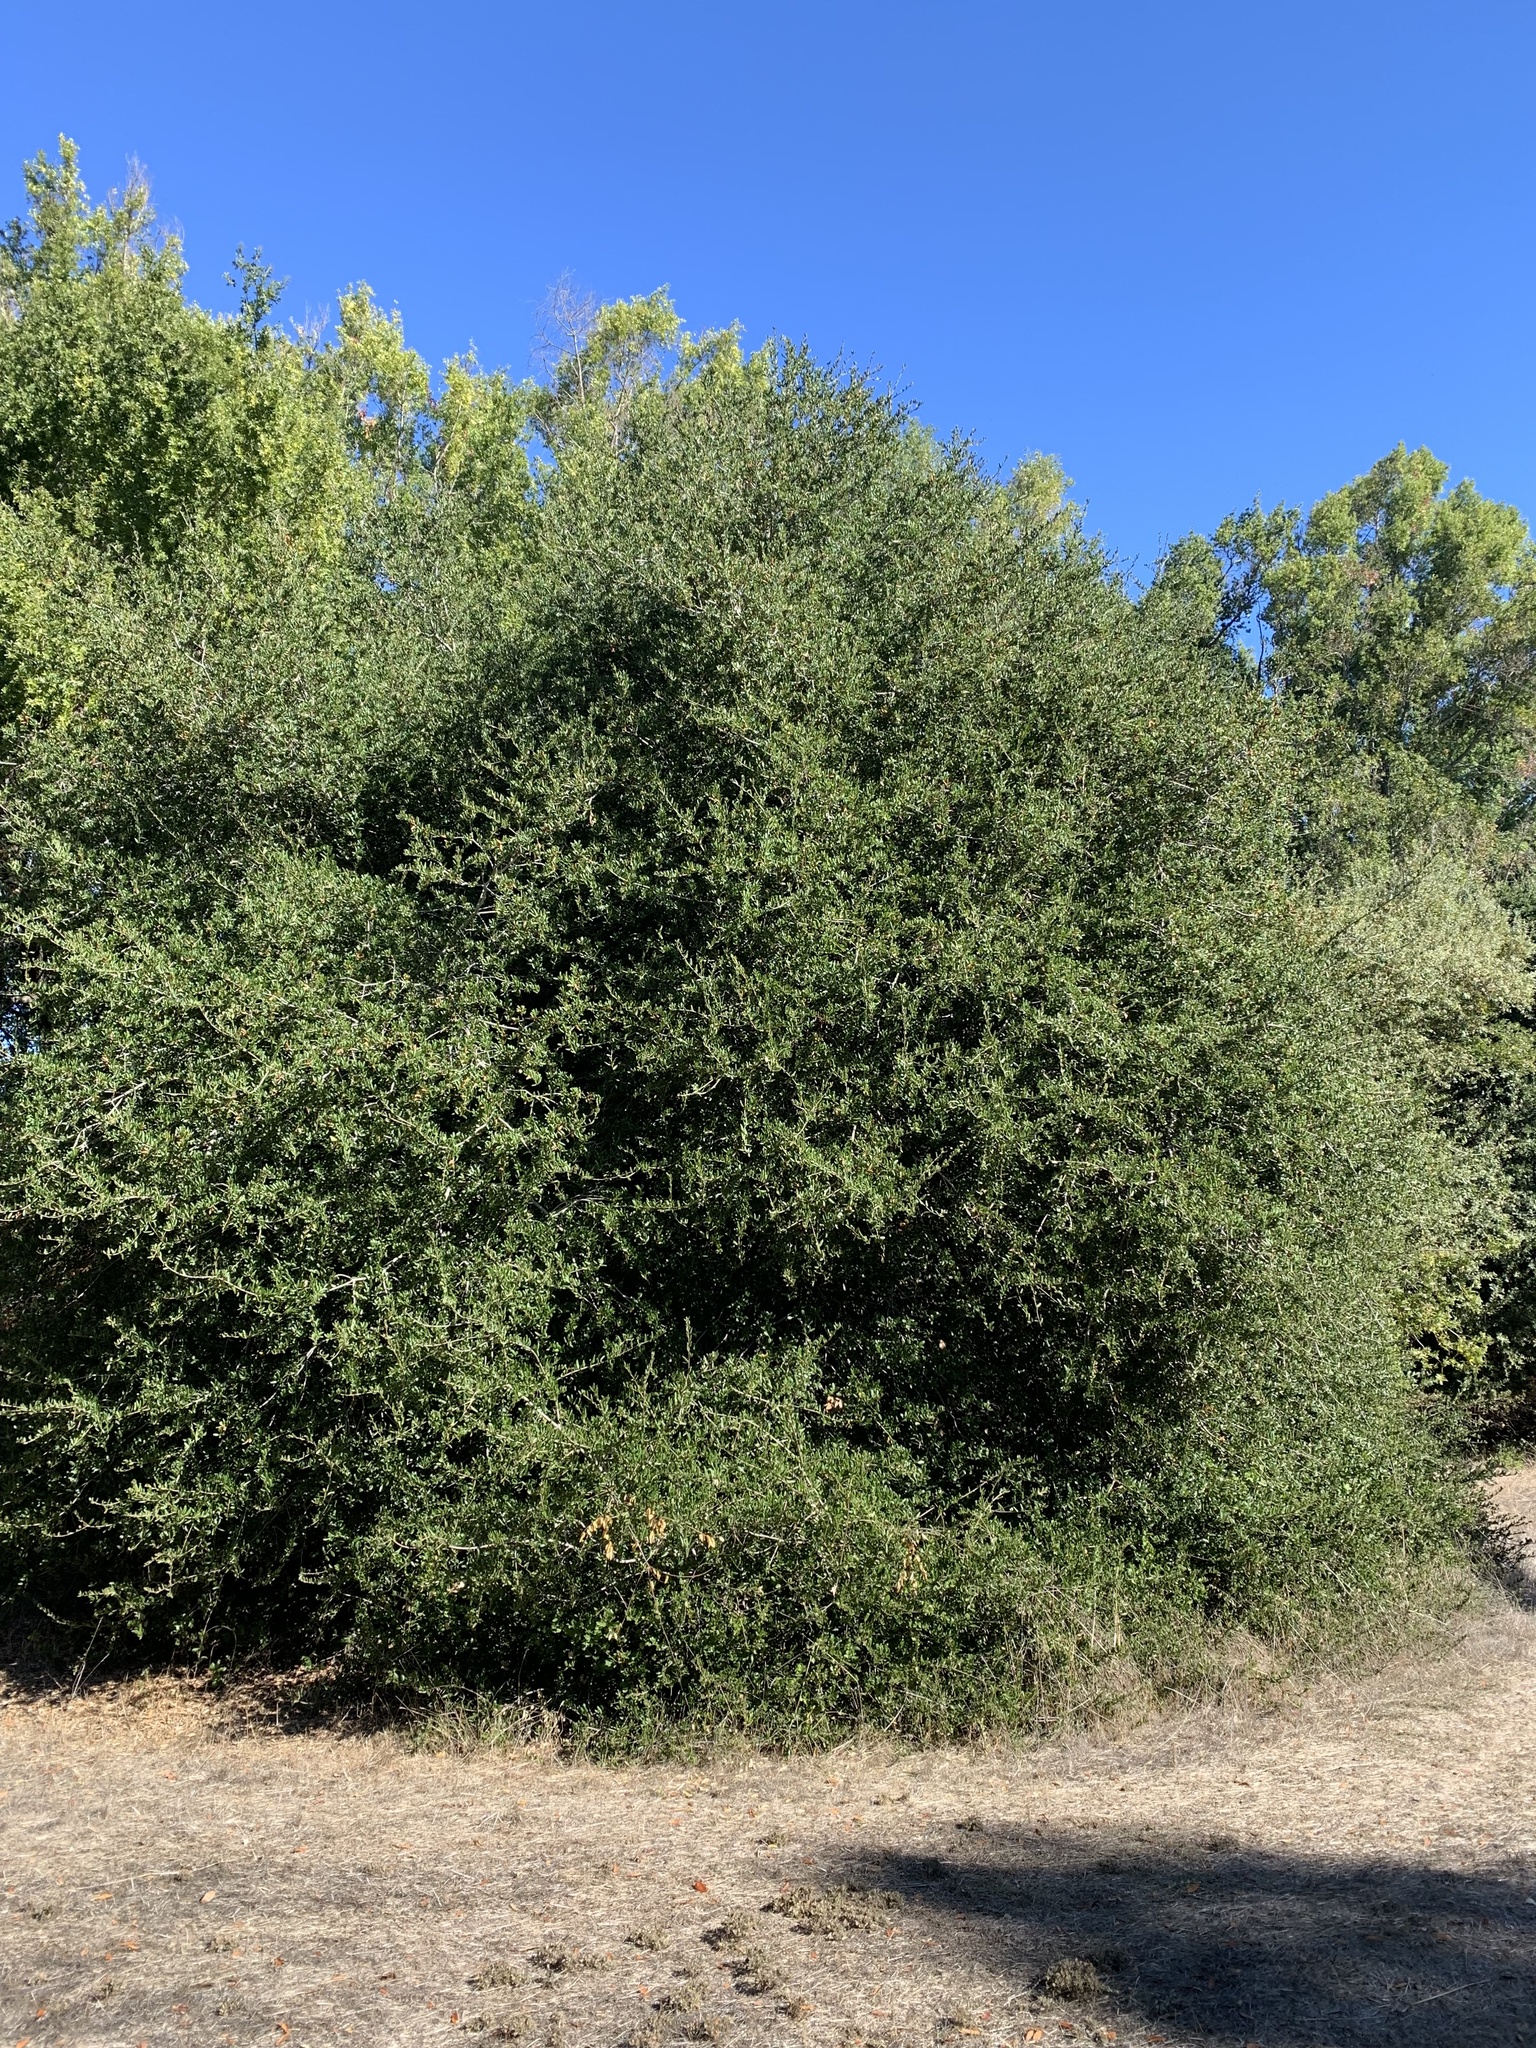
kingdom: Plantae
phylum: Tracheophyta
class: Magnoliopsida
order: Fagales
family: Fagaceae
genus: Quercus
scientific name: Quercus agrifolia
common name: California live oak
